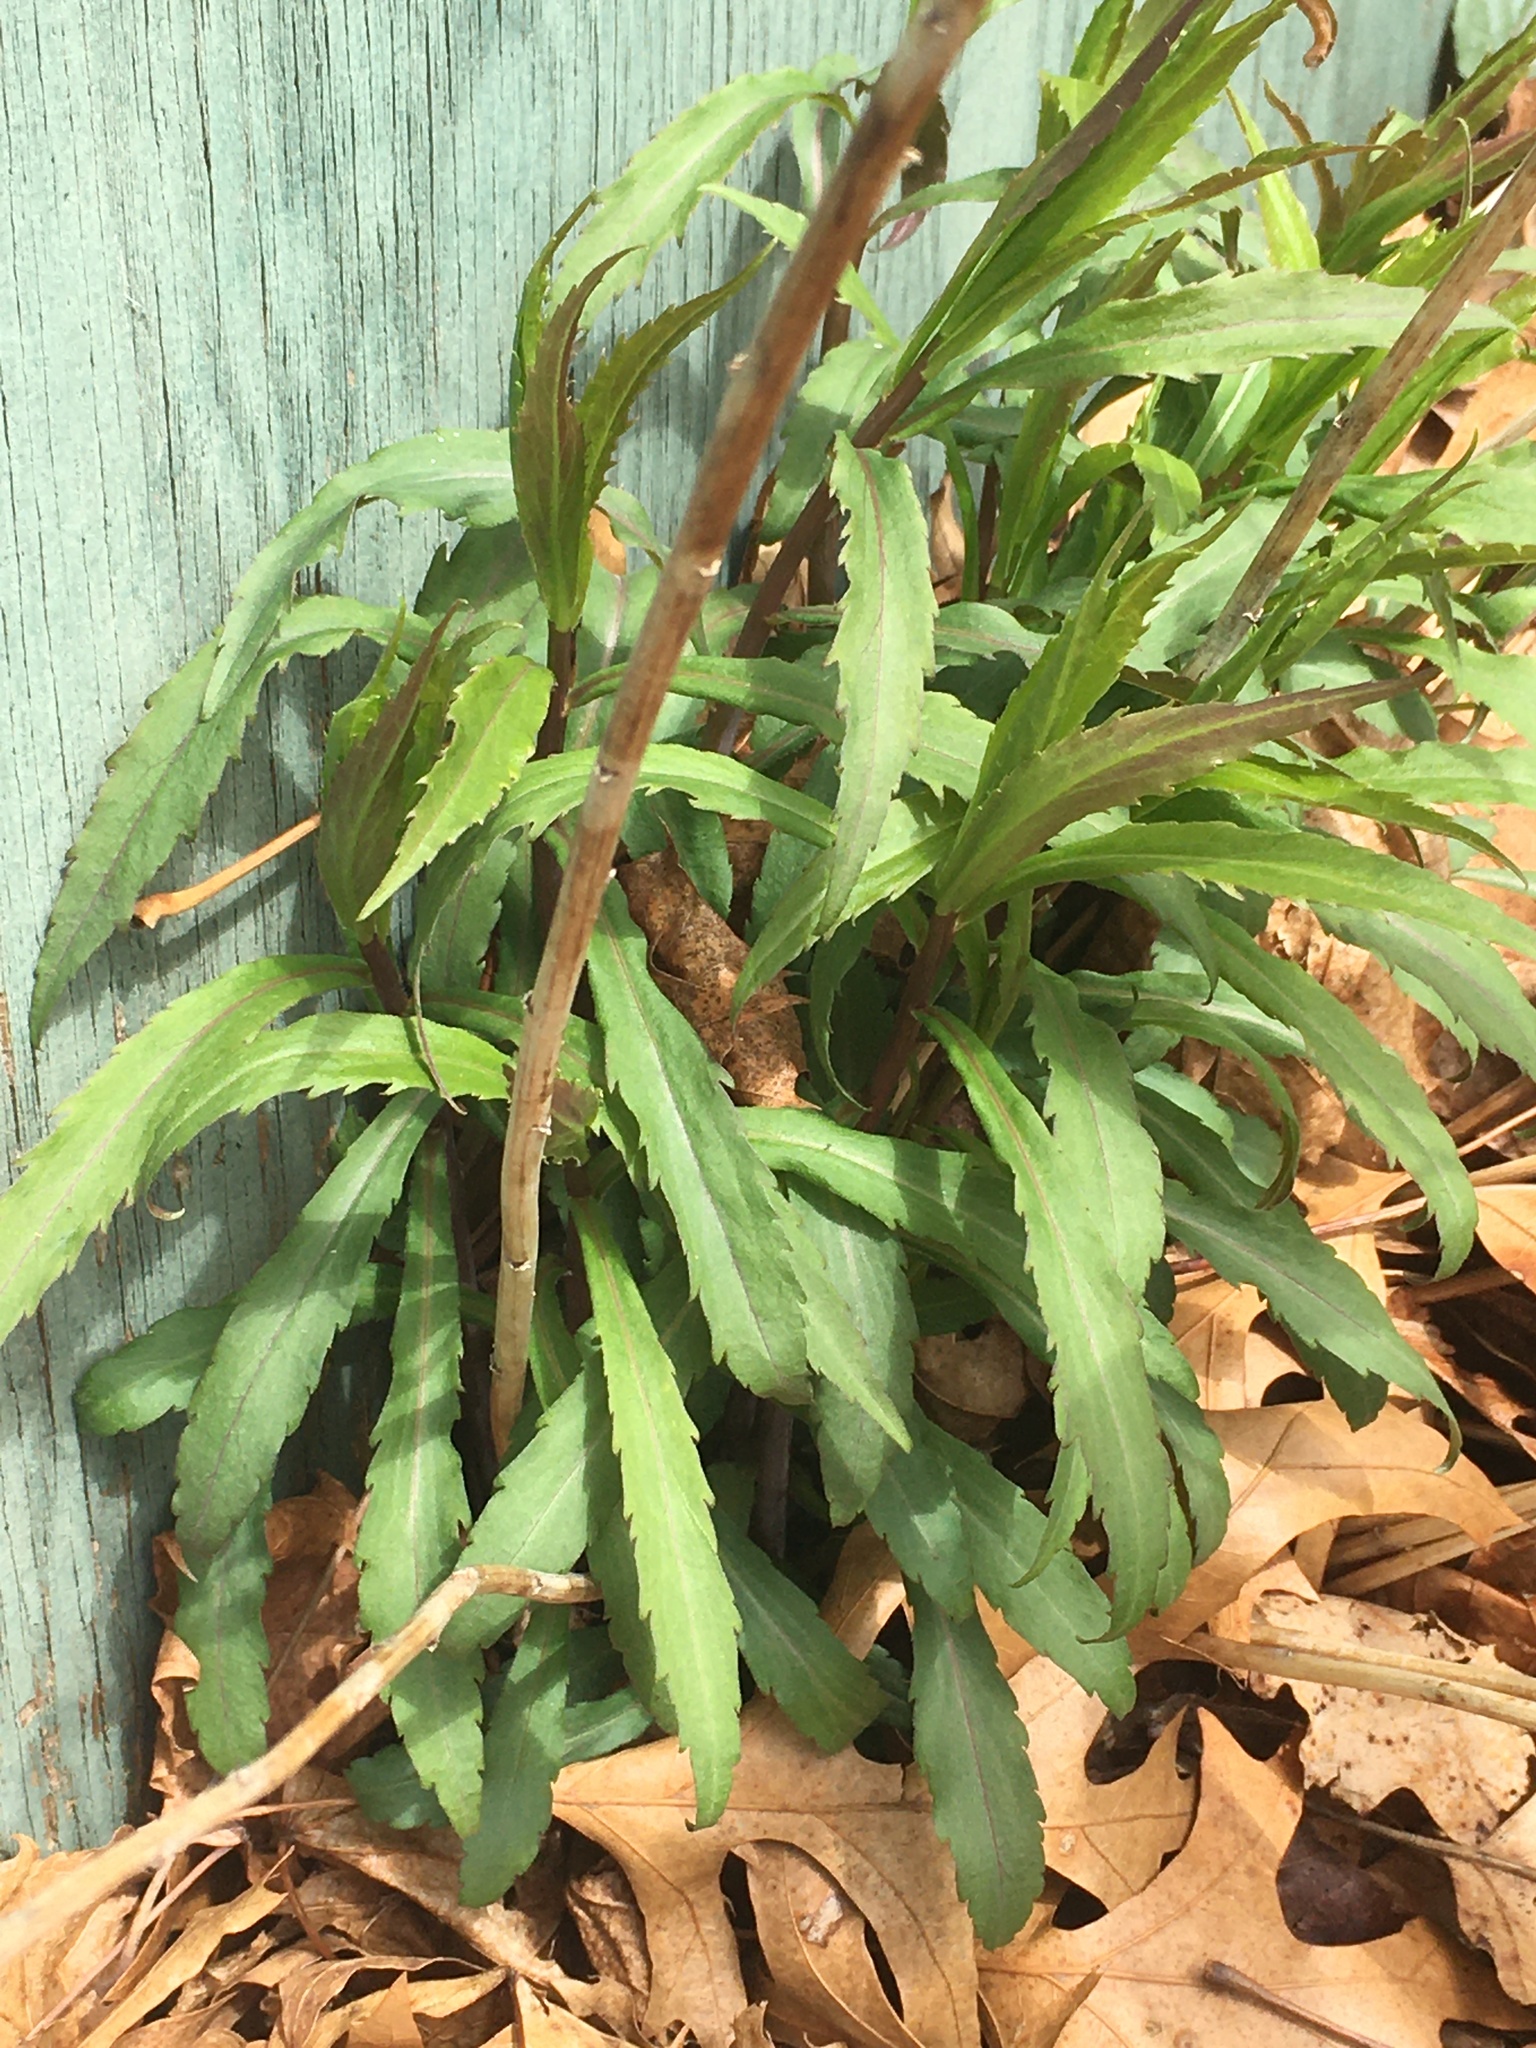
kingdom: Plantae
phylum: Tracheophyta
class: Magnoliopsida
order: Asterales
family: Asteraceae
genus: Solidago
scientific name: Solidago caesia
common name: Woodland goldenrod
